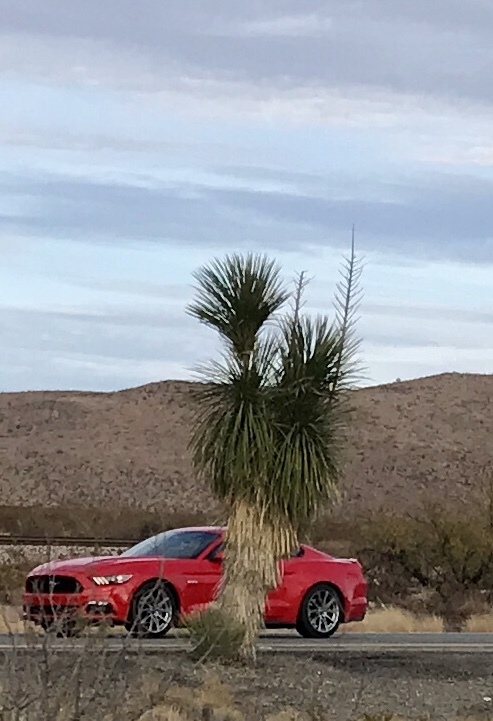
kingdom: Plantae
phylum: Tracheophyta
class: Liliopsida
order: Asparagales
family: Asparagaceae
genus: Yucca
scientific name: Yucca elata
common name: Palmella
